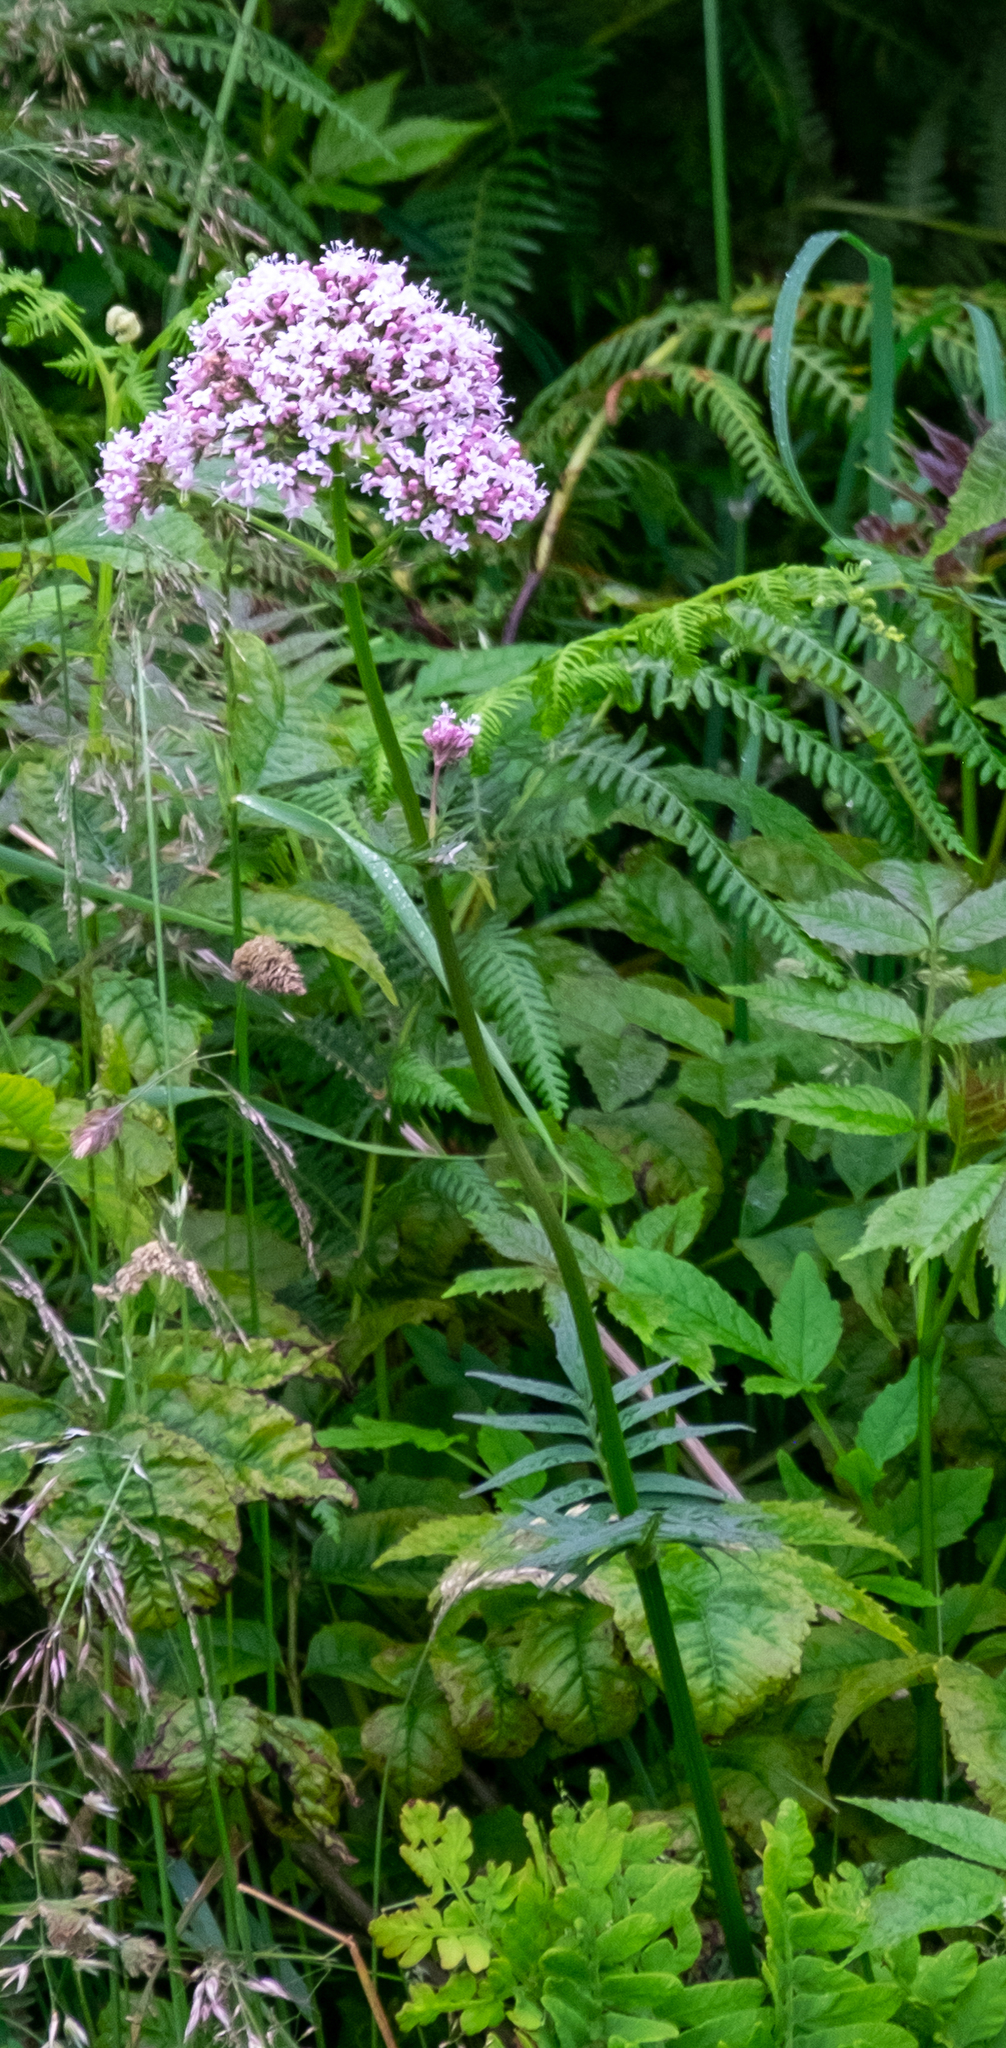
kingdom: Plantae
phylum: Tracheophyta
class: Magnoliopsida
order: Dipsacales
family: Caprifoliaceae
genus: Valeriana
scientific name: Valeriana officinalis
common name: Common valerian
